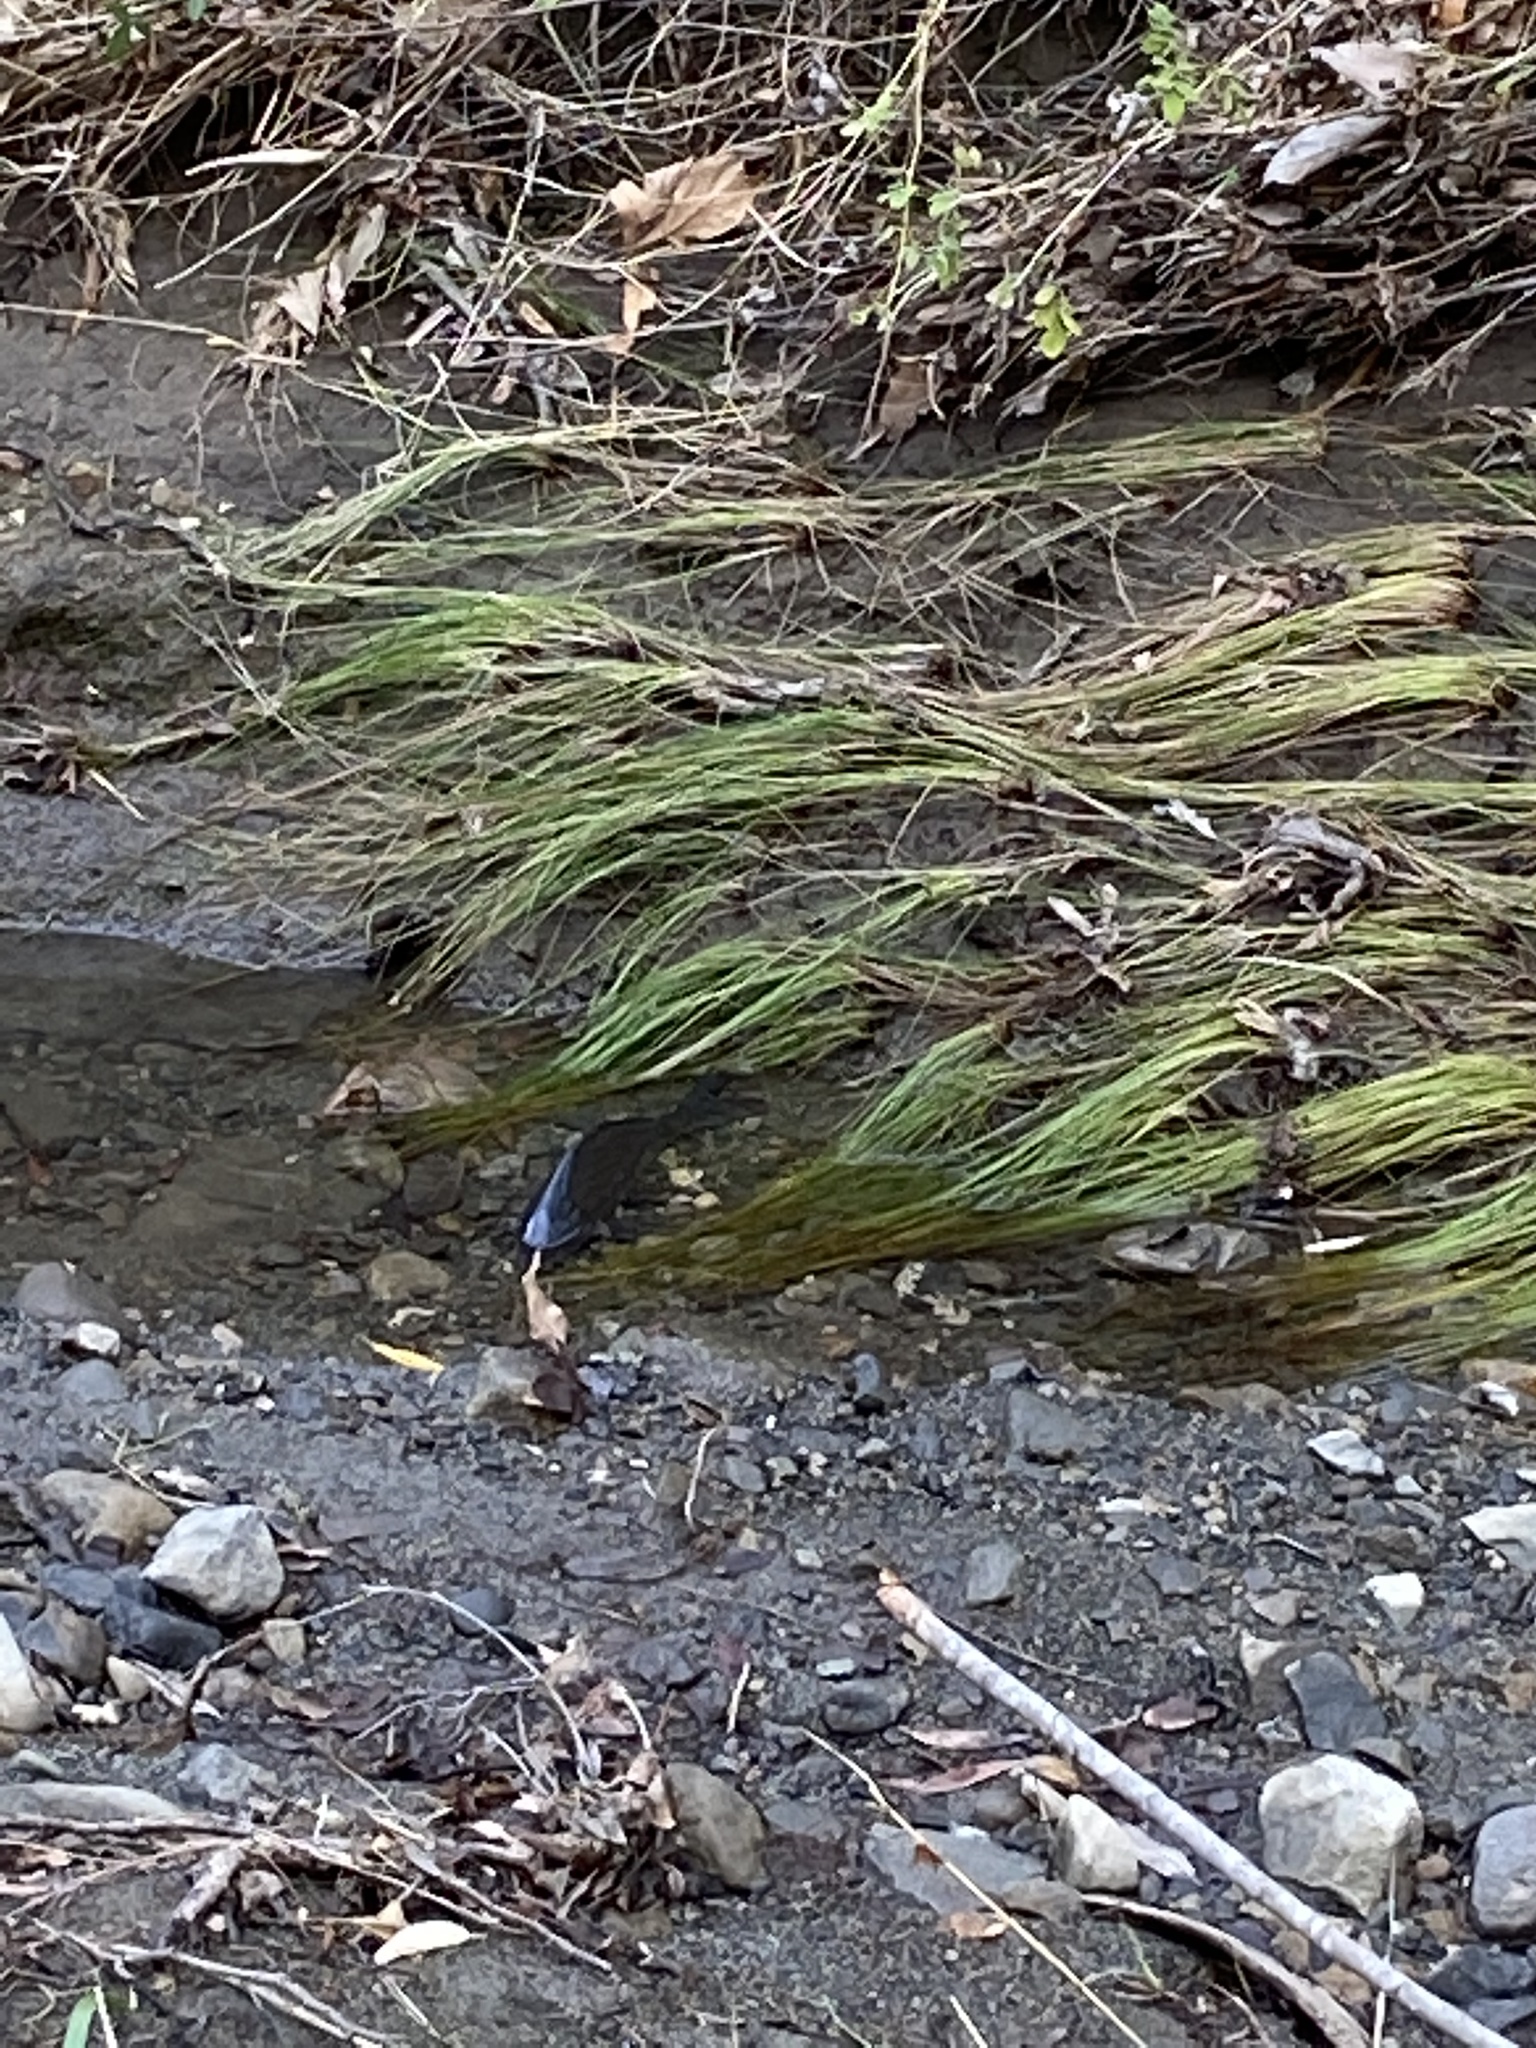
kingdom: Animalia
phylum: Chordata
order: Cypriniformes
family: Cyprinidae
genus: Cyprinus
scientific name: Cyprinus carpio
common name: Common carp
